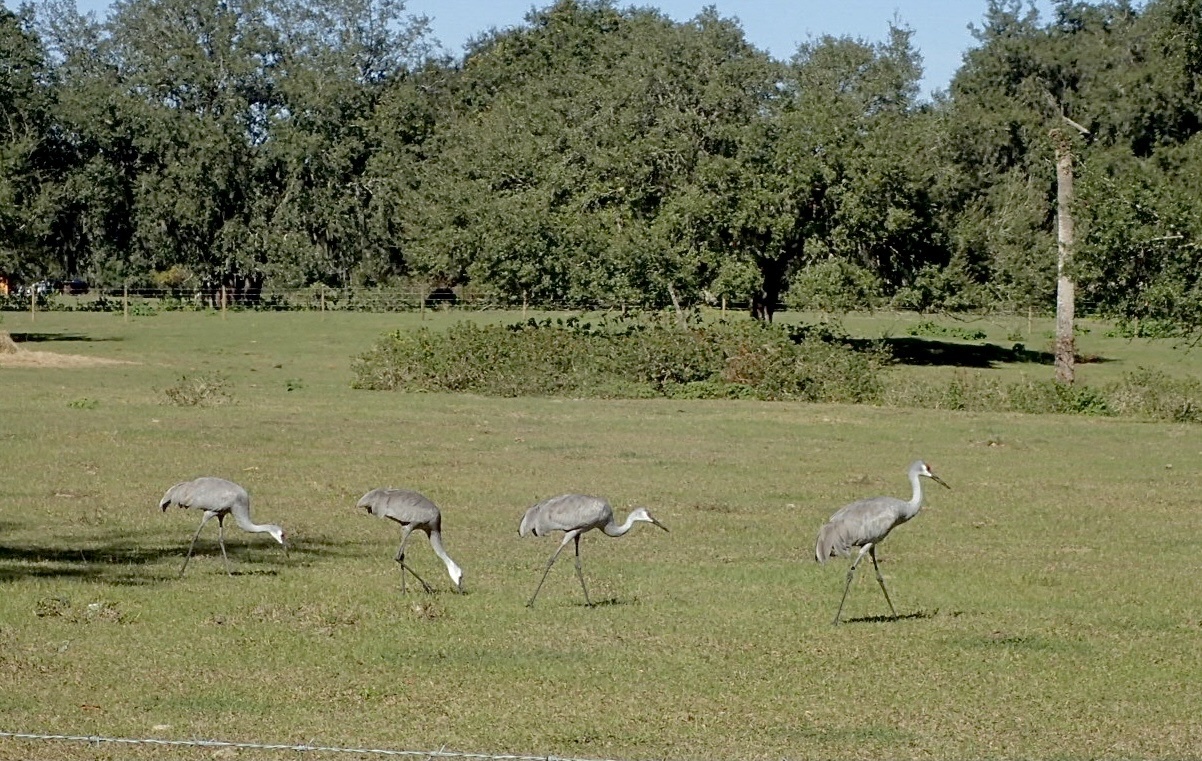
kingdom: Animalia
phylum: Chordata
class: Aves
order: Gruiformes
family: Gruidae
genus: Grus
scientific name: Grus canadensis
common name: Sandhill crane
